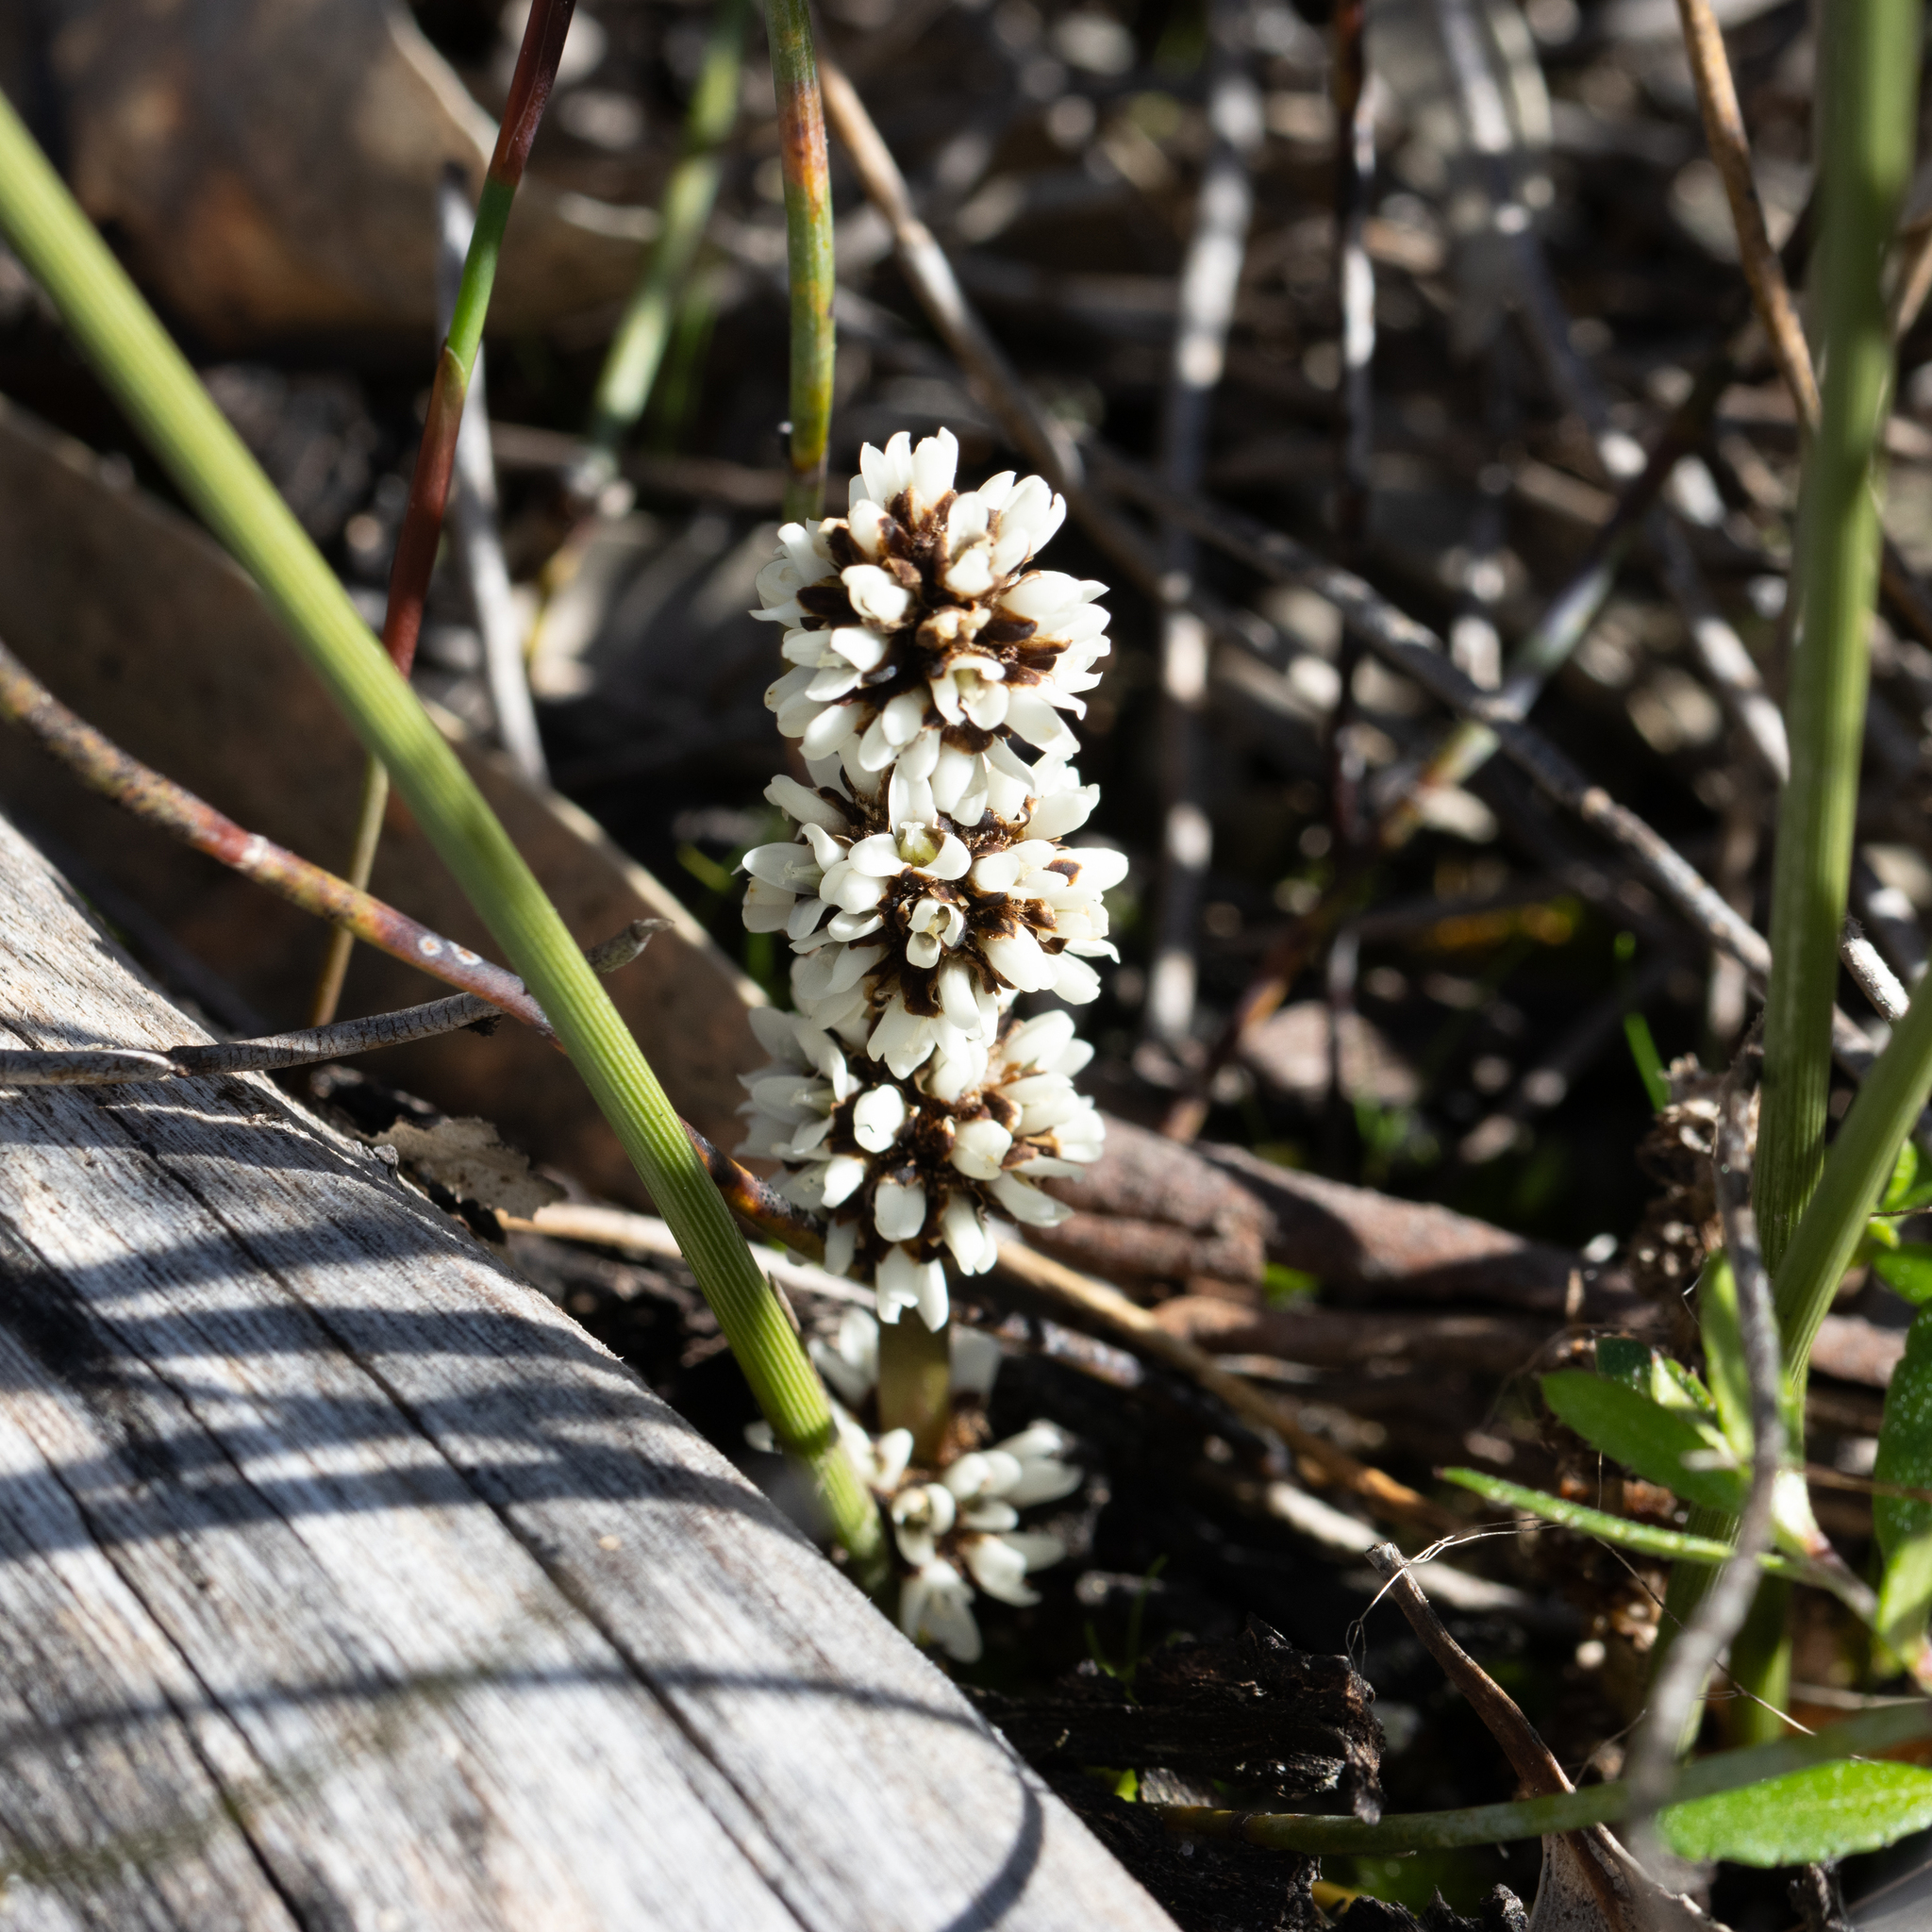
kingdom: Plantae
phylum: Tracheophyta
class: Liliopsida
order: Asparagales
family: Asparagaceae
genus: Lomandra
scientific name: Lomandra juncea
